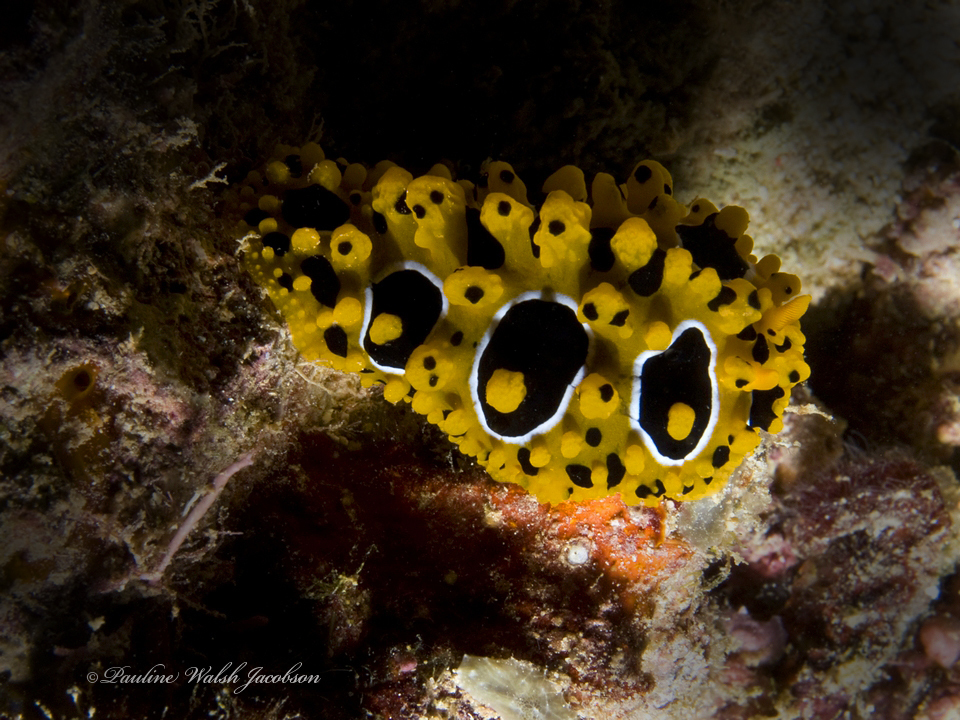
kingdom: Animalia
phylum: Mollusca
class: Gastropoda
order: Nudibranchia
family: Phyllidiidae
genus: Phyllidia
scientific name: Phyllidia ocellata
